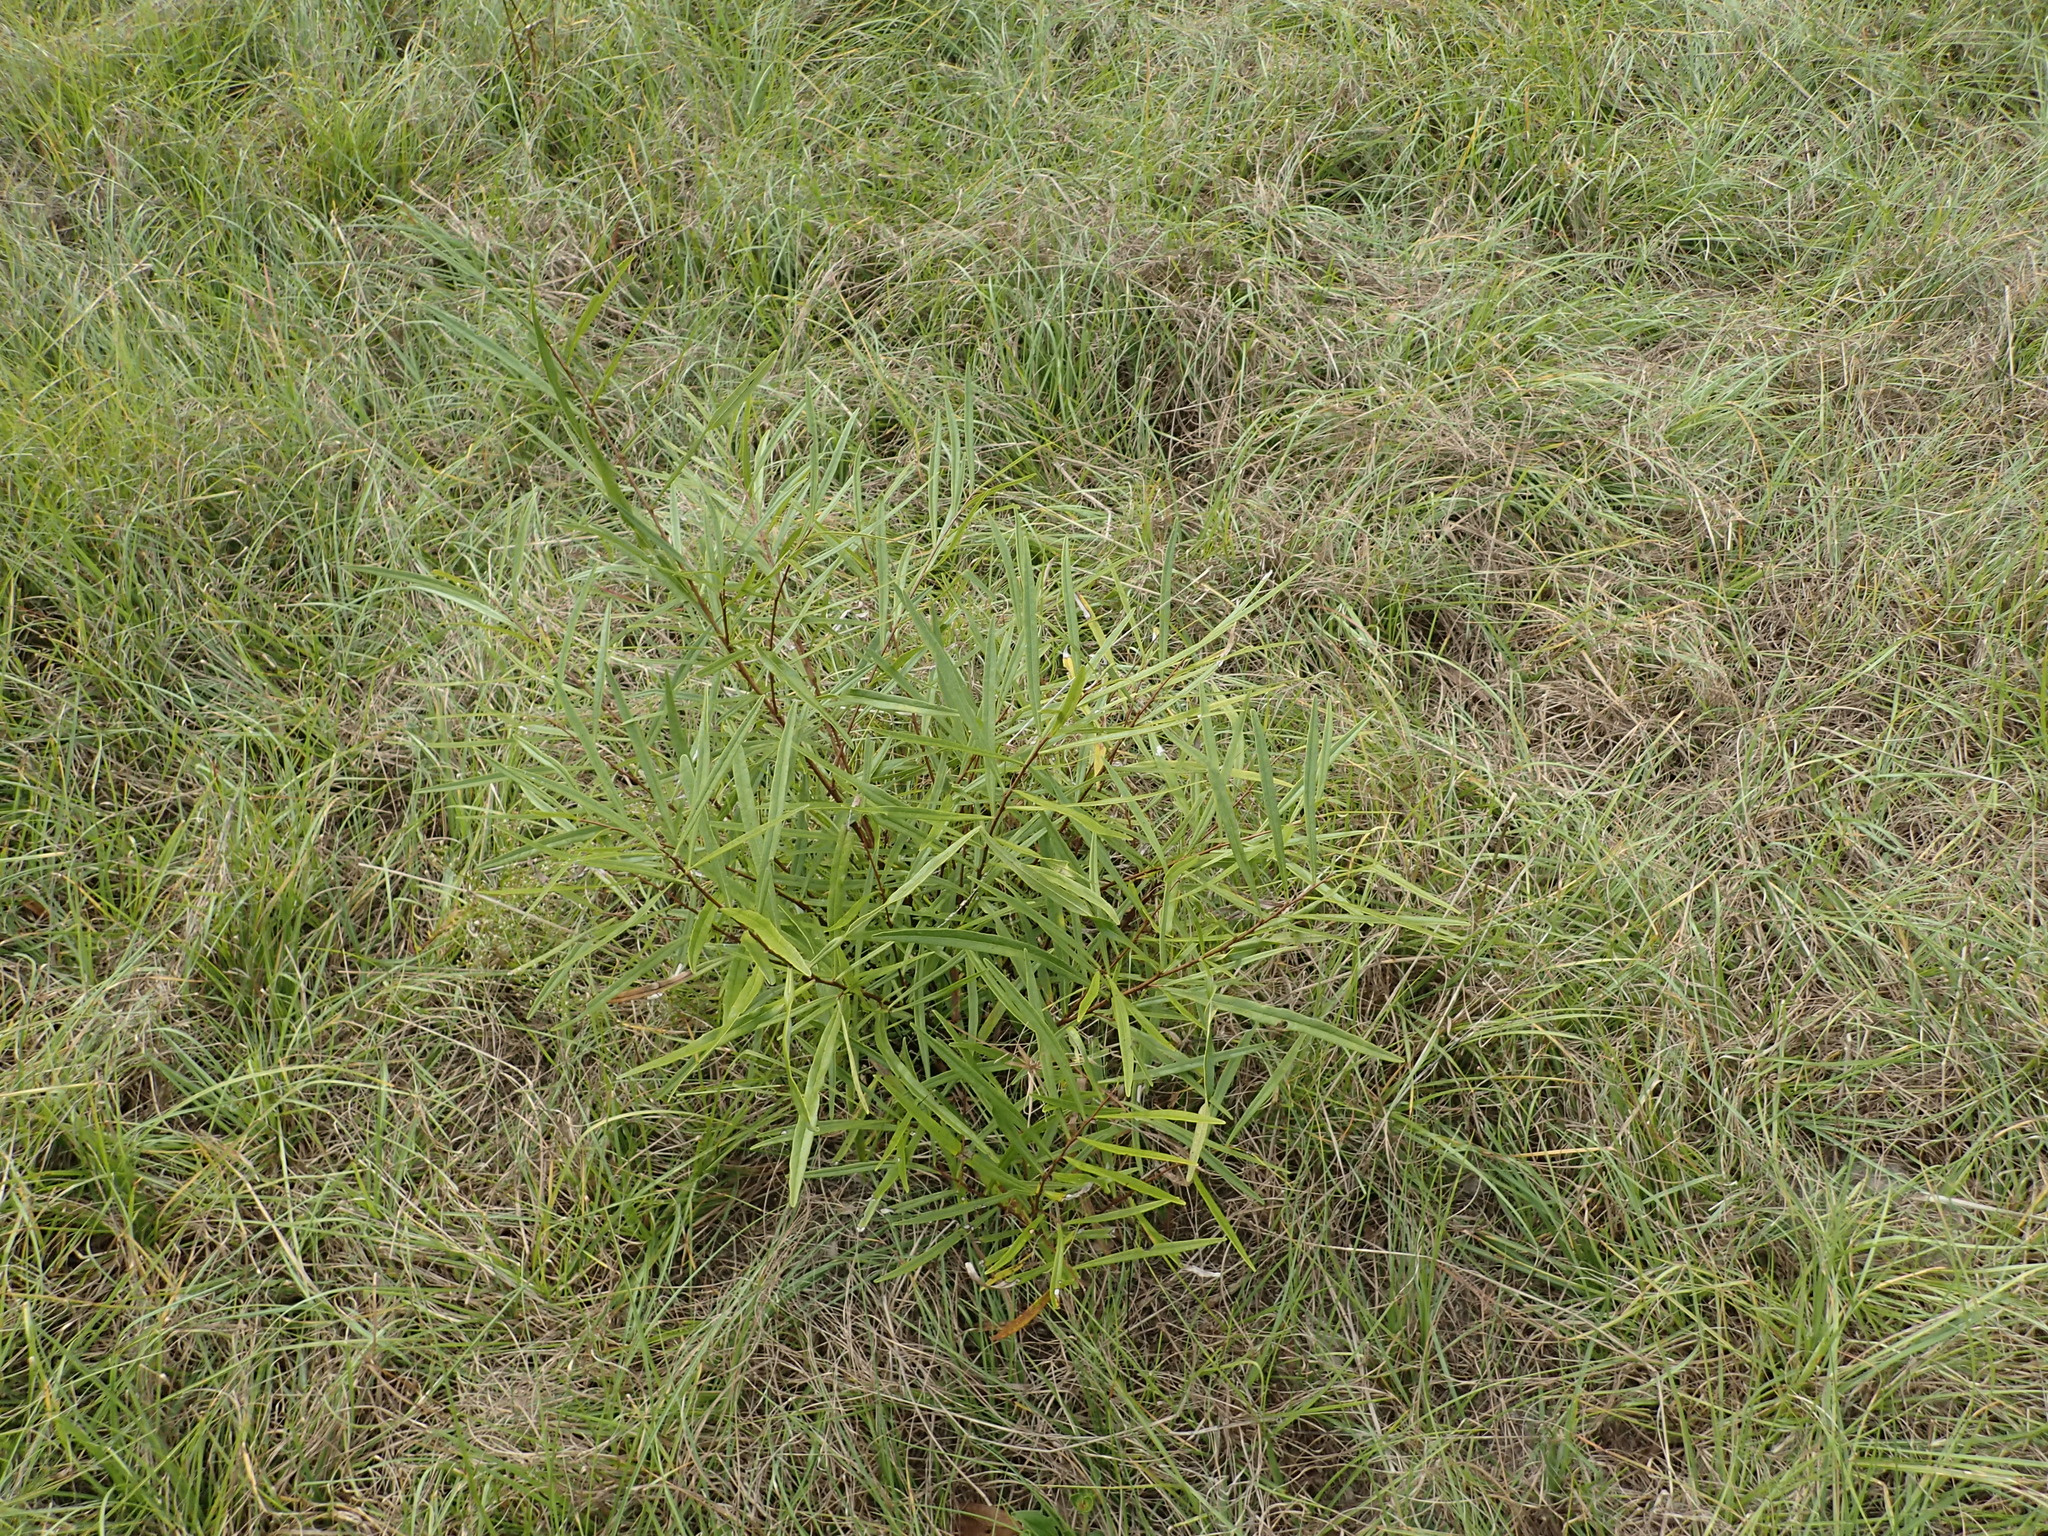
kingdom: Plantae
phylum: Tracheophyta
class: Magnoliopsida
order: Magnoliales
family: Annonaceae
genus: Asimina
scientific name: Asimina longifolia
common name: Polecatbush
